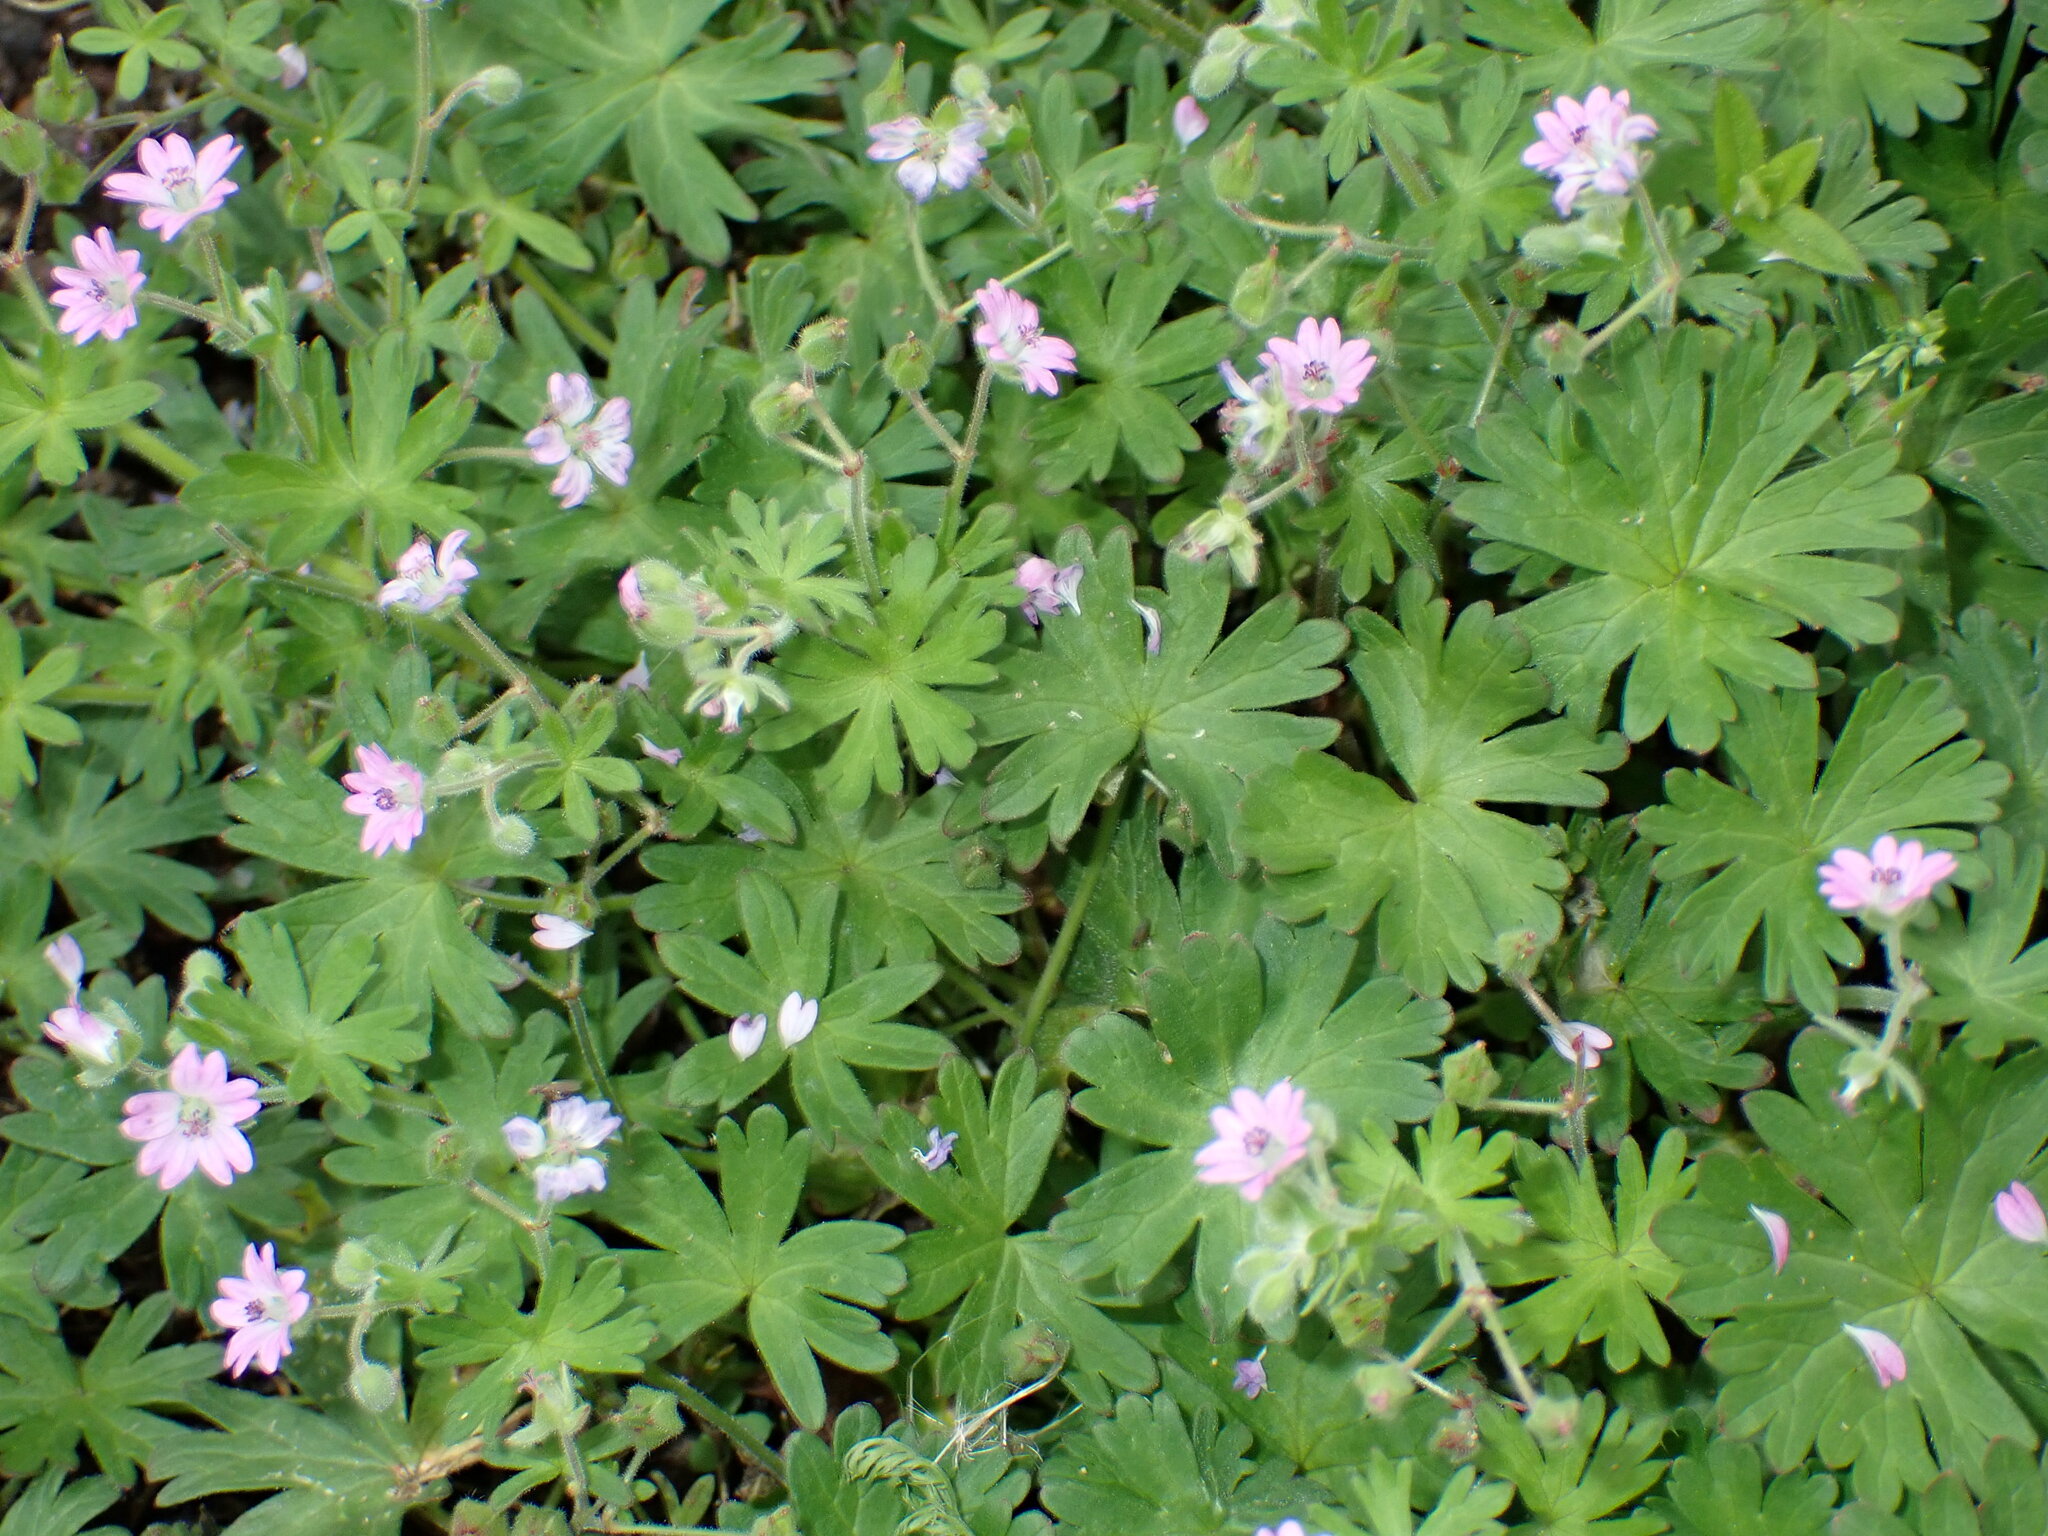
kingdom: Plantae
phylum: Tracheophyta
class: Magnoliopsida
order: Geraniales
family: Geraniaceae
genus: Geranium
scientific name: Geranium molle
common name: Dove's-foot crane's-bill
